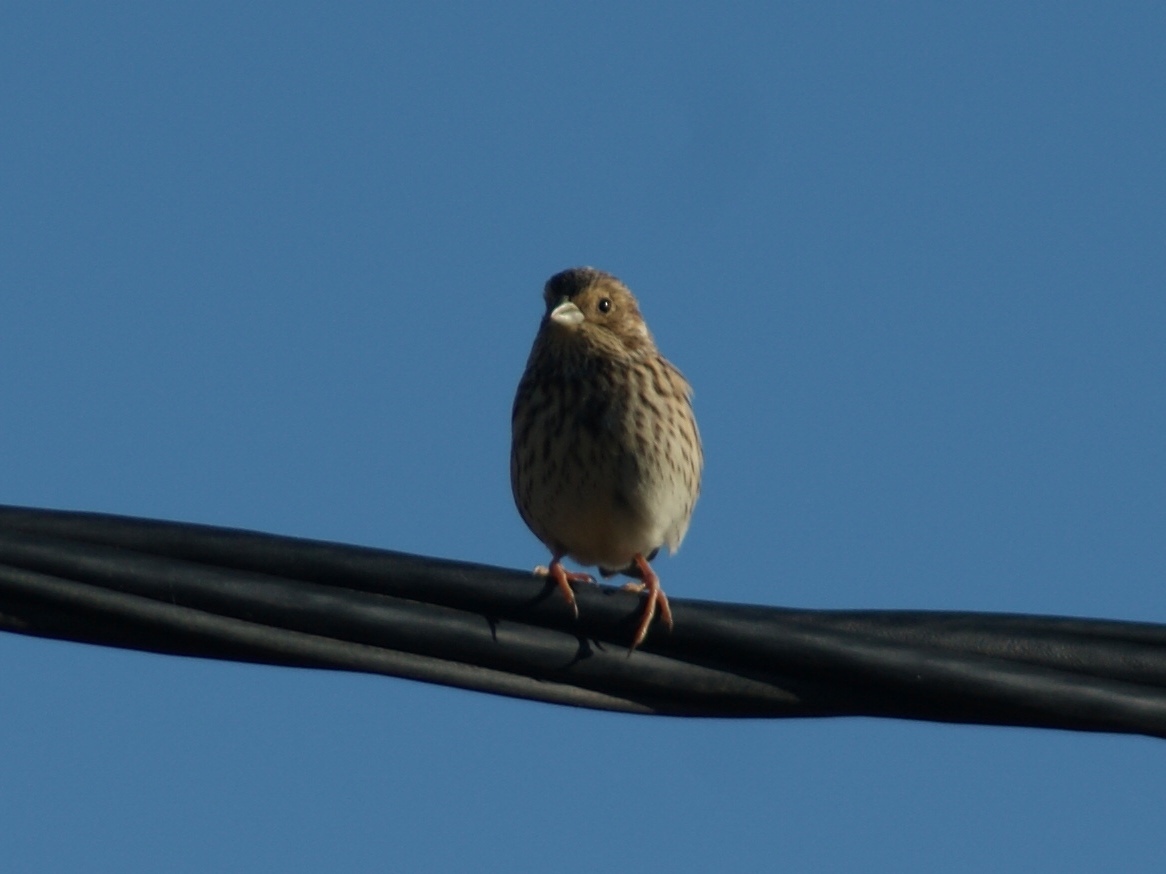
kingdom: Animalia
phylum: Chordata
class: Aves
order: Passeriformes
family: Emberizidae
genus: Emberiza
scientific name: Emberiza calandra
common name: Corn bunting
